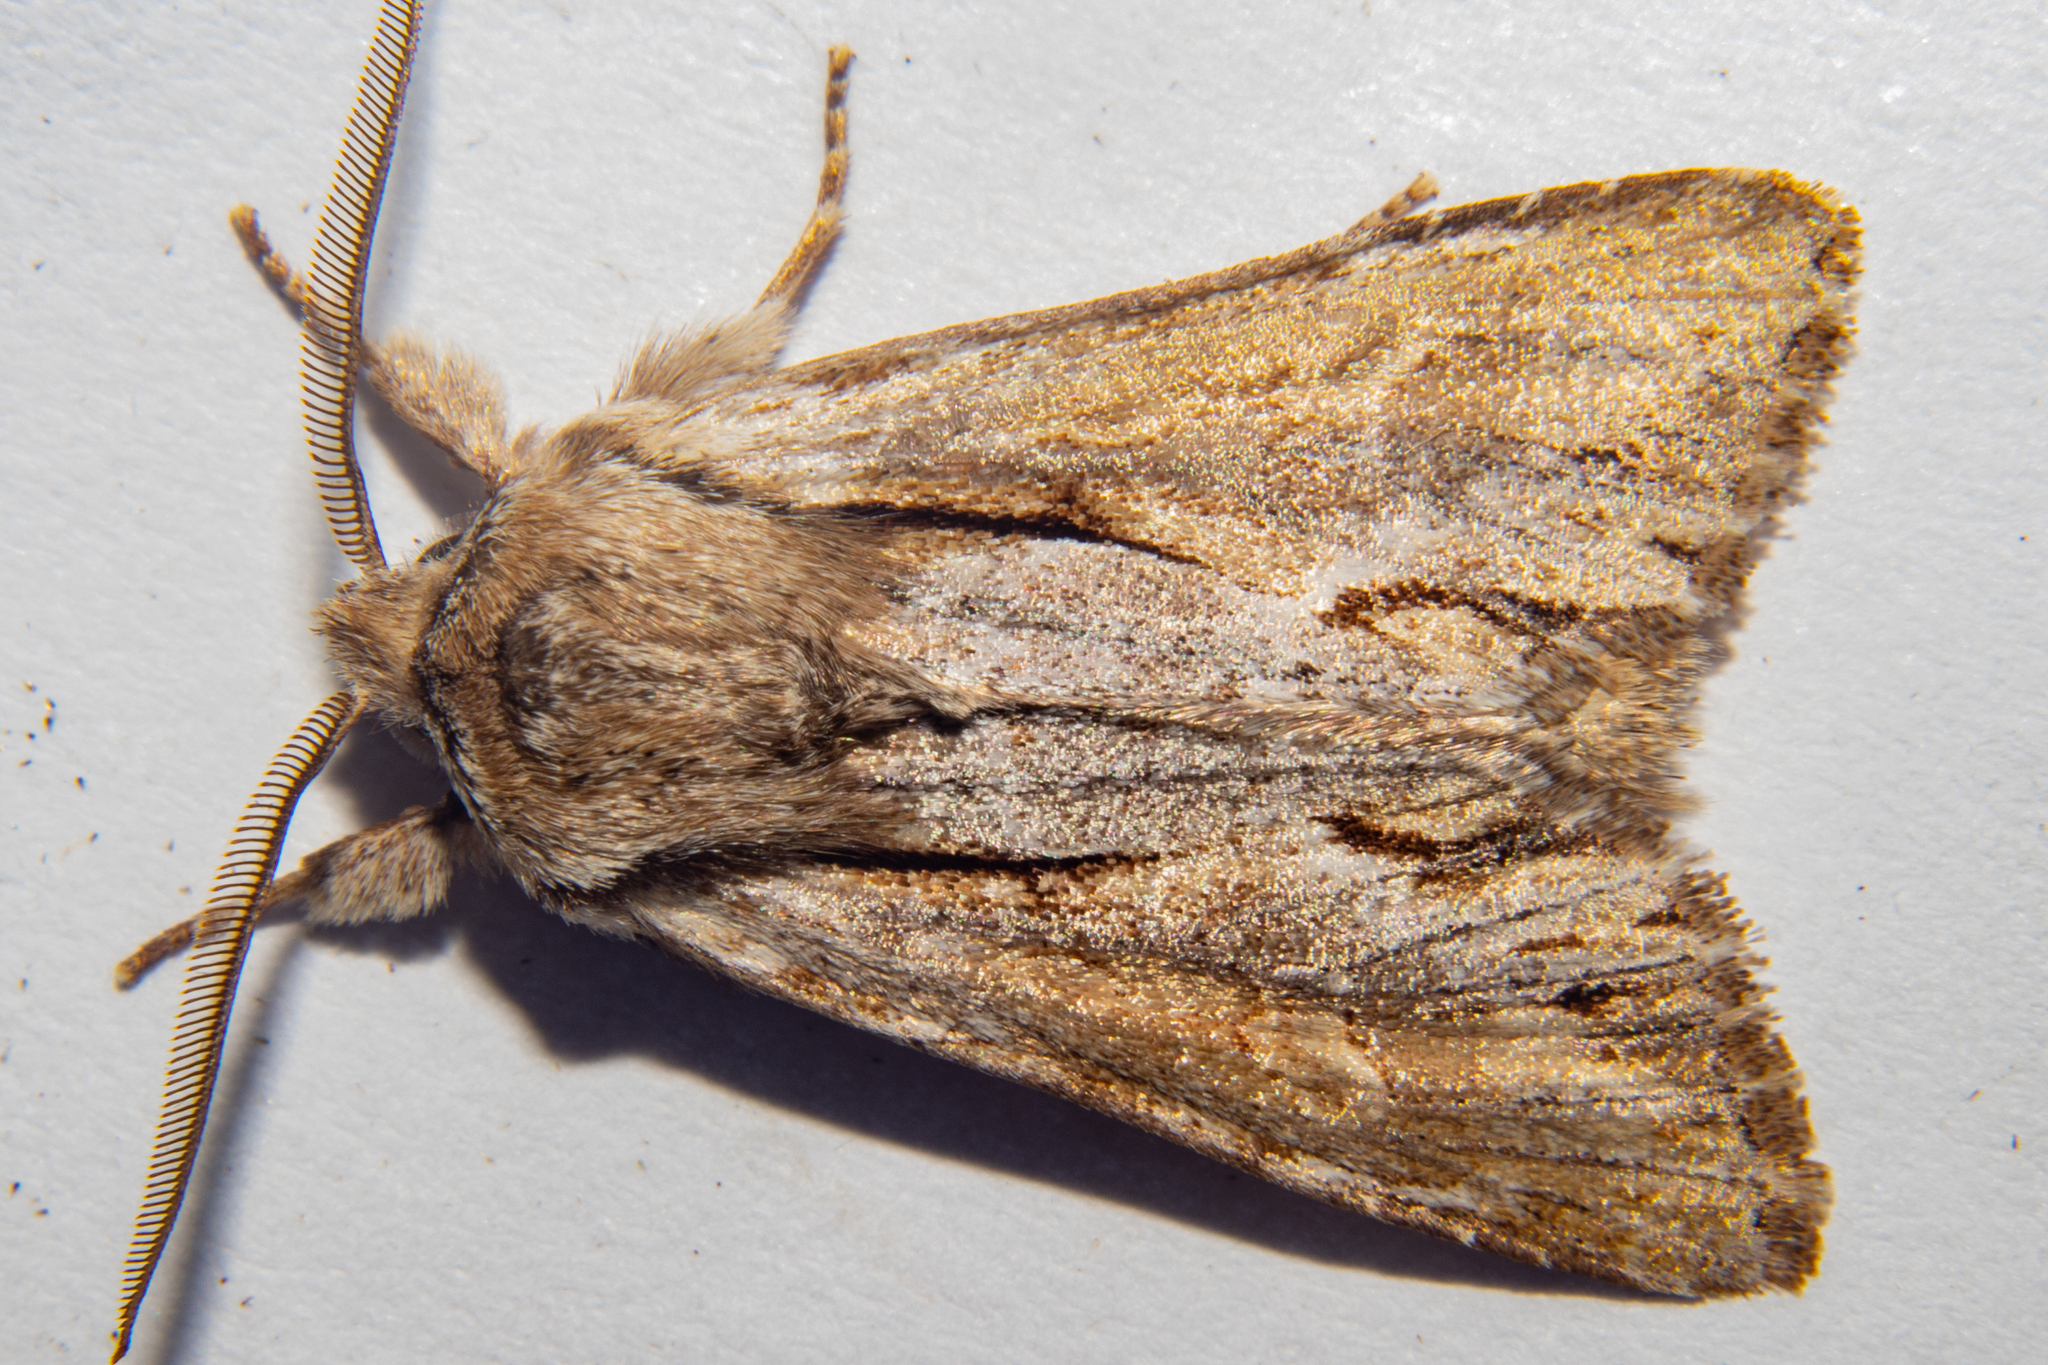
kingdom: Animalia
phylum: Arthropoda
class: Insecta
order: Lepidoptera
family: Noctuidae
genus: Ichneutica
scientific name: Ichneutica
